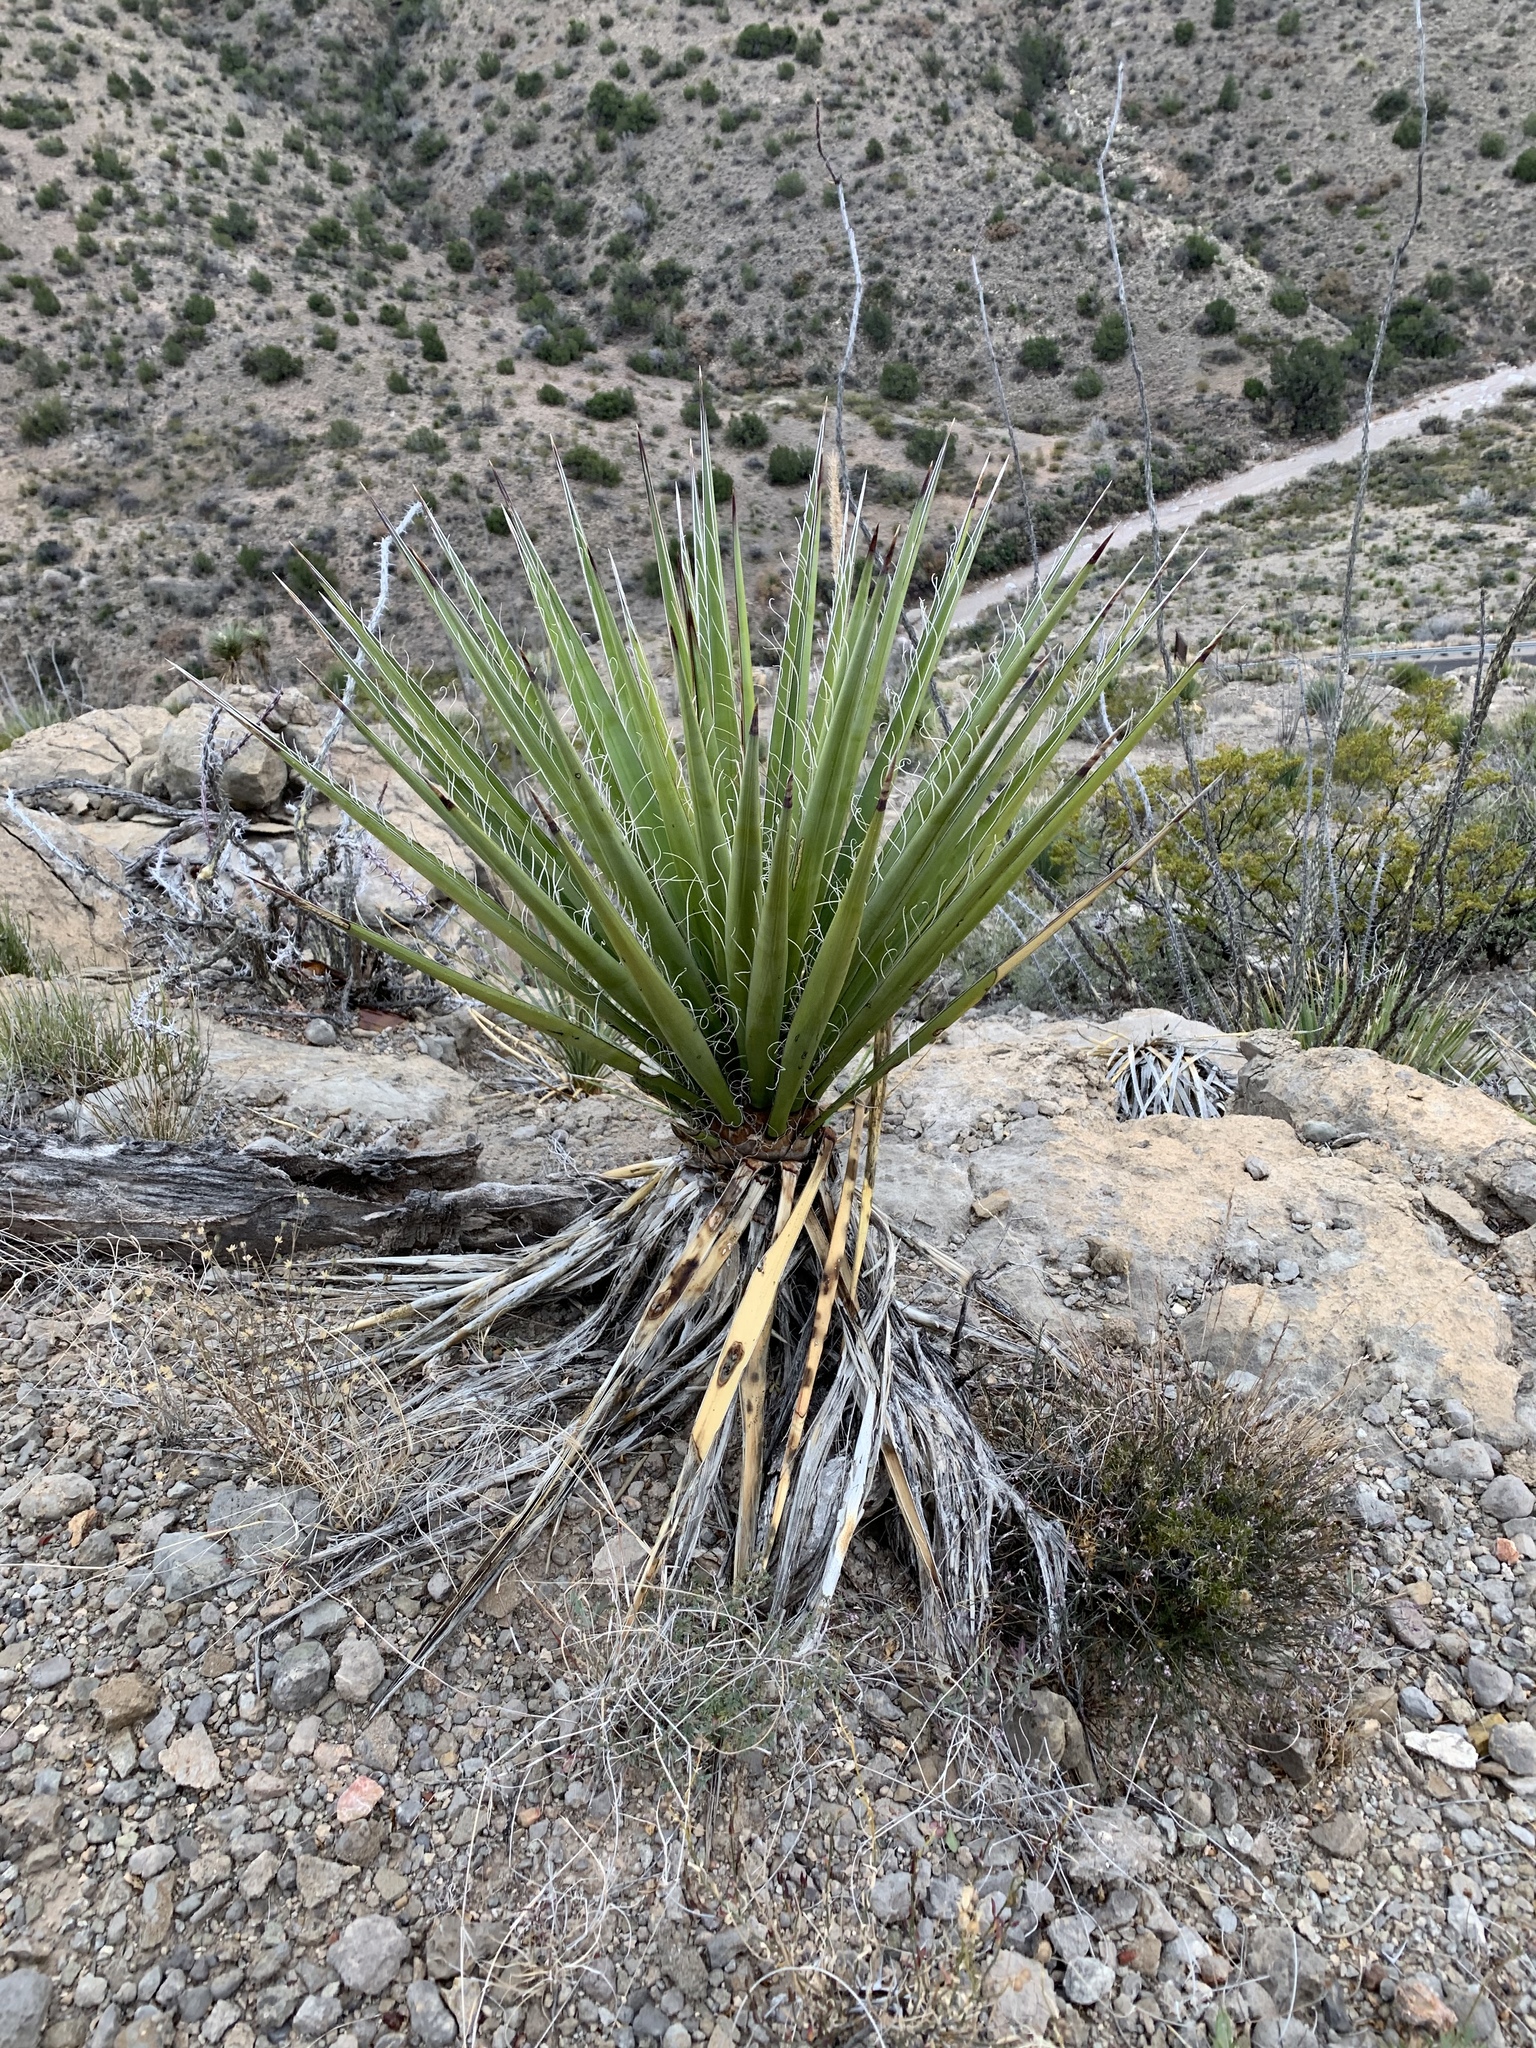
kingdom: Plantae
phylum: Tracheophyta
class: Liliopsida
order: Asparagales
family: Asparagaceae
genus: Yucca
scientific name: Yucca treculiana
